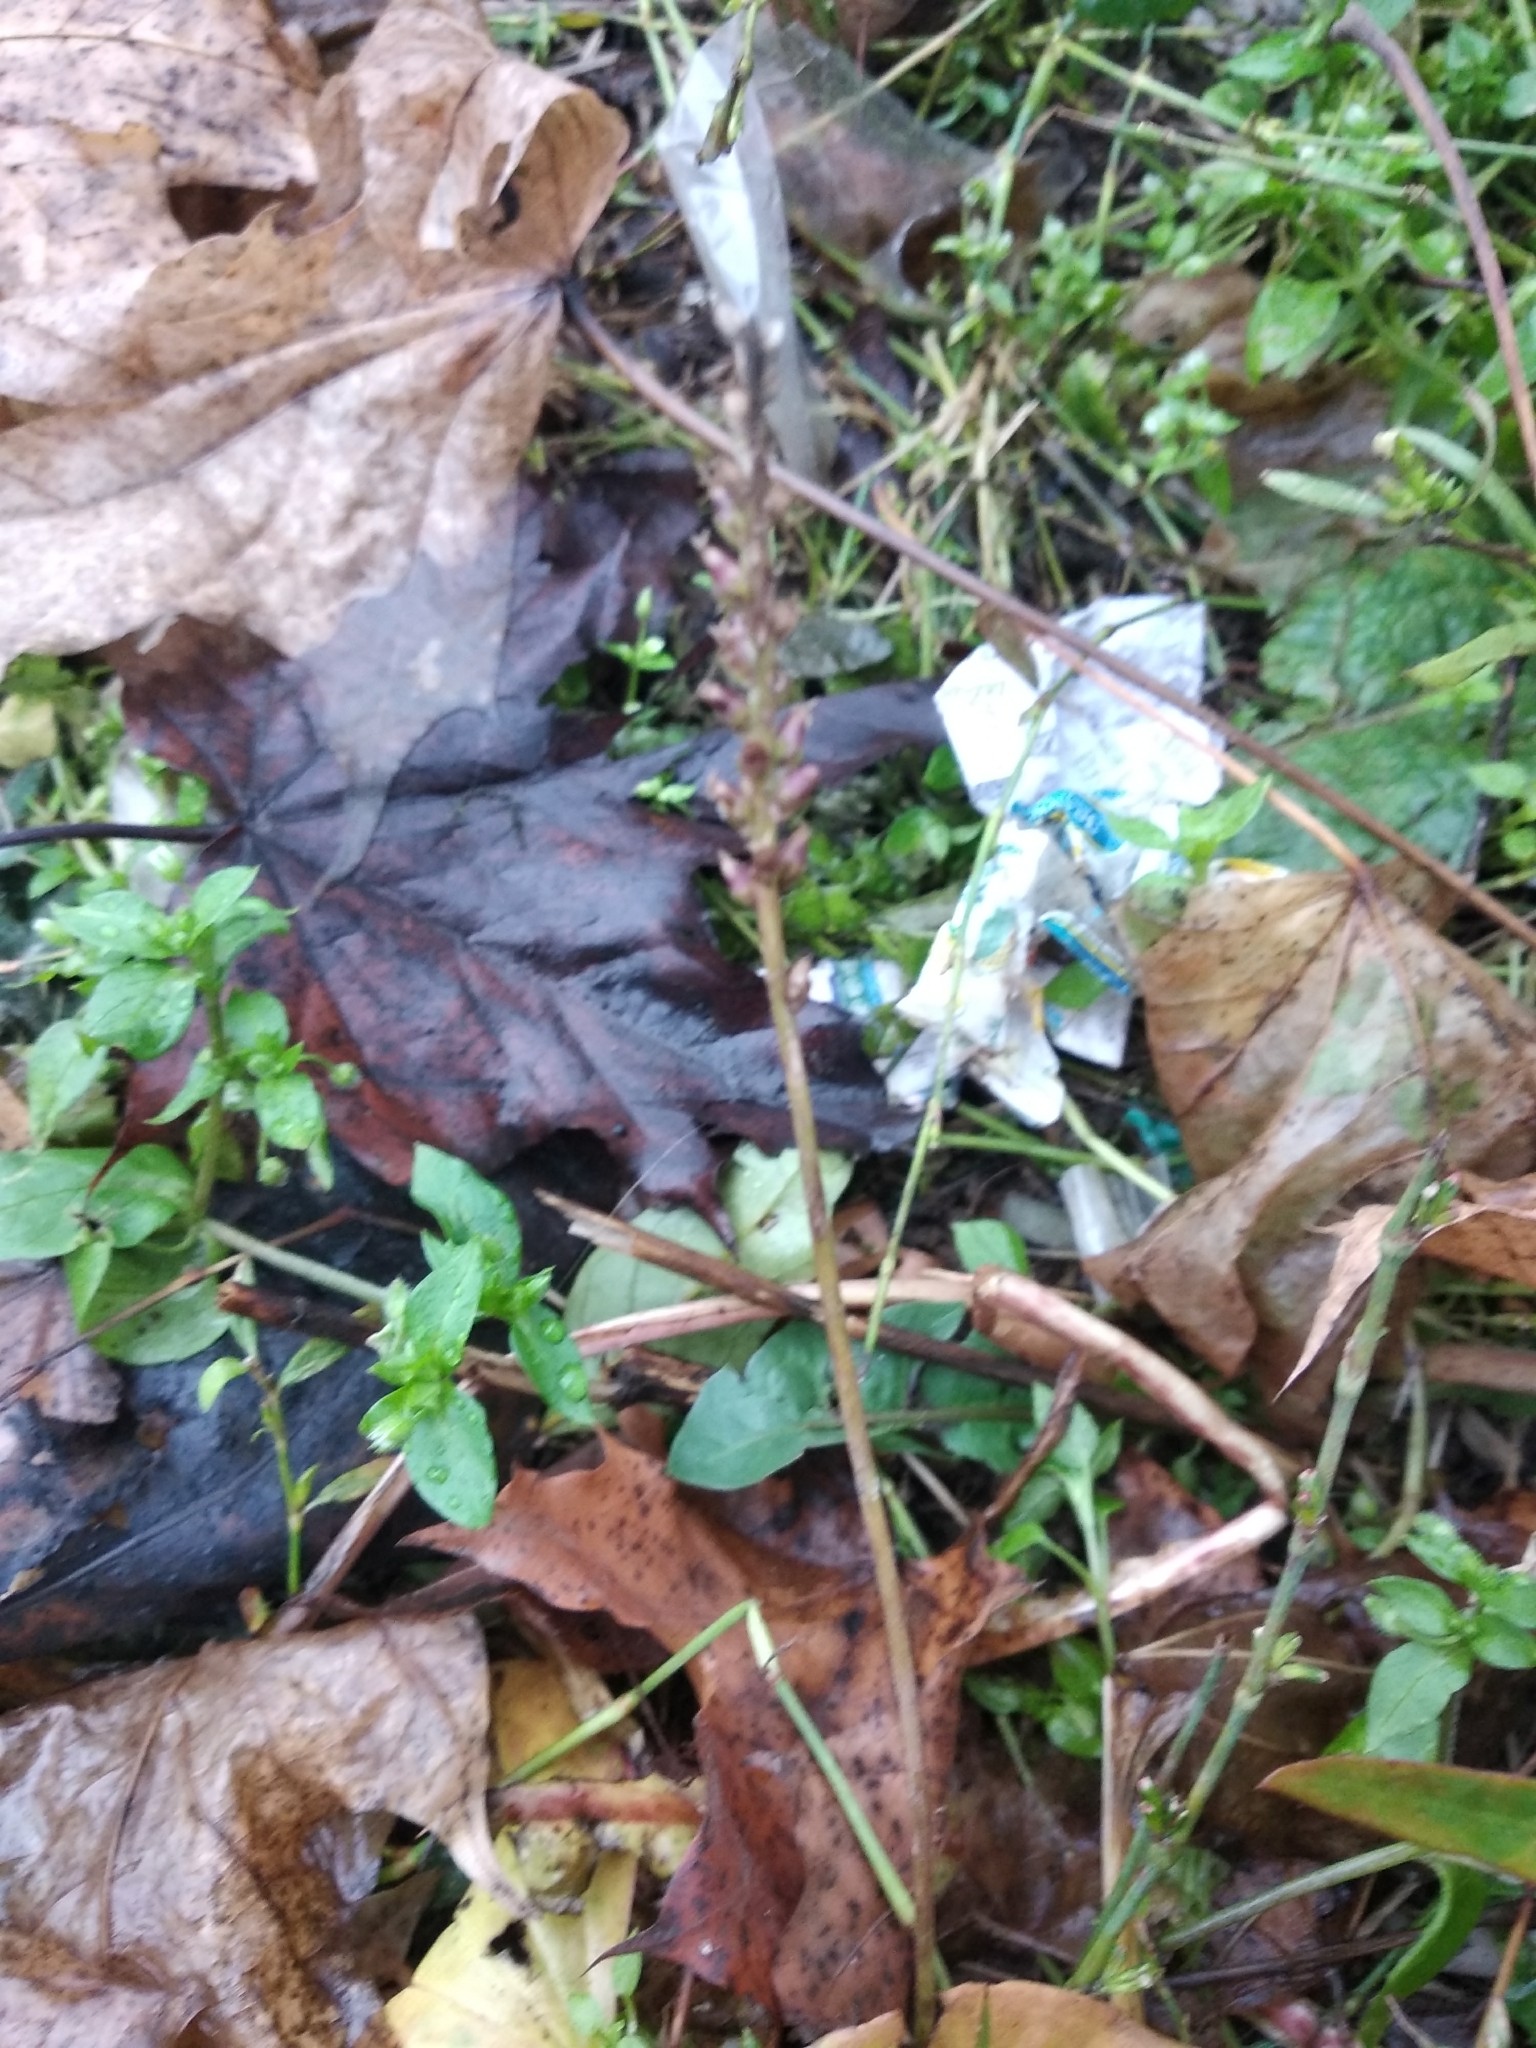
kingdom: Plantae
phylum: Tracheophyta
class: Magnoliopsida
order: Lamiales
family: Plantaginaceae
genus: Plantago
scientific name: Plantago major
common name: Common plantain
